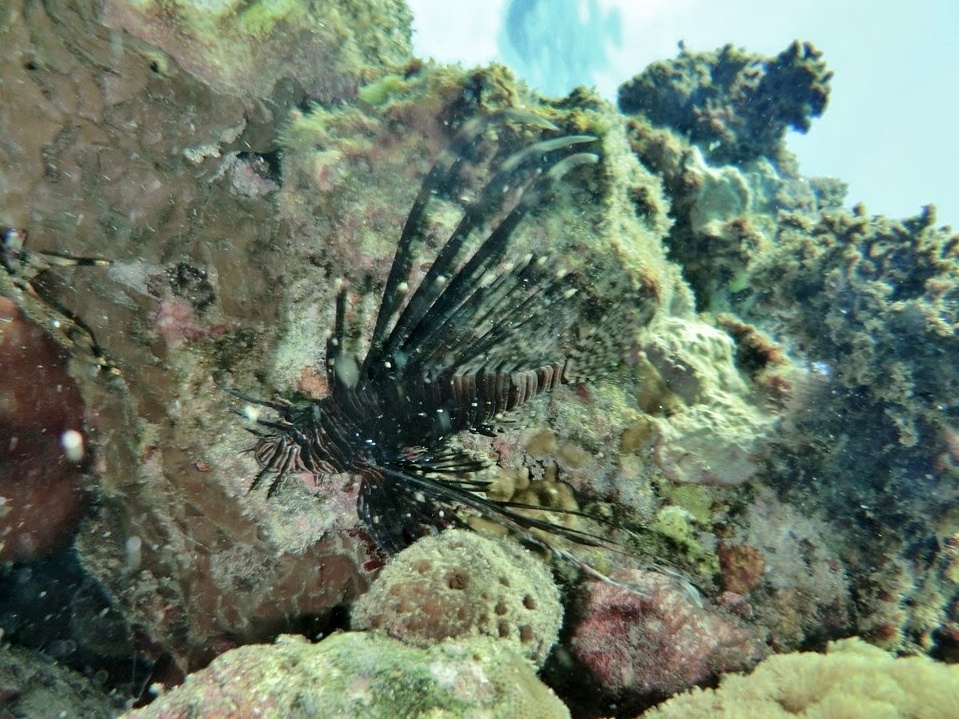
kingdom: Animalia
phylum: Chordata
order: Scorpaeniformes
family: Scorpaenidae
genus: Pterois
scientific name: Pterois volitans
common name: Lionfish
